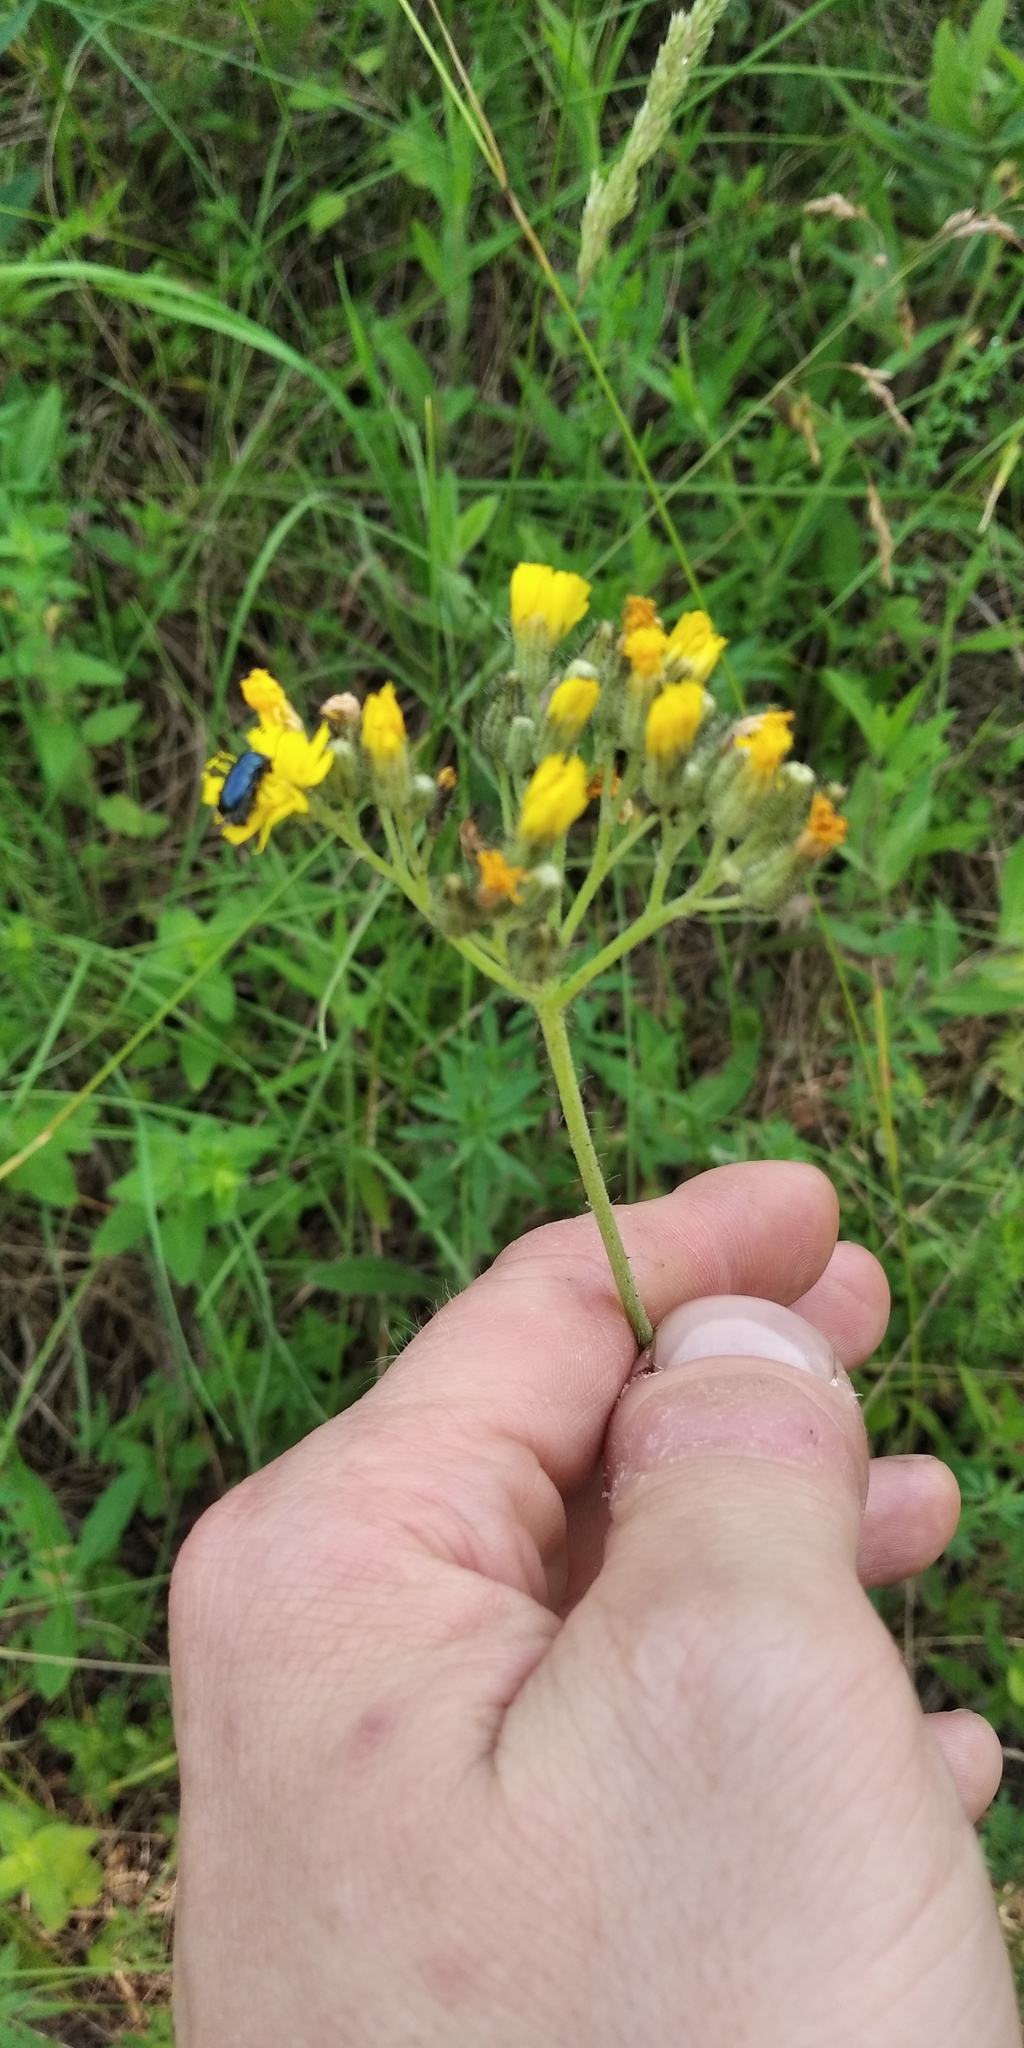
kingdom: Plantae
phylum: Tracheophyta
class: Magnoliopsida
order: Asterales
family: Asteraceae
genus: Pilosella
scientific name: Pilosella floribunda
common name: Glaucous hawkweed
